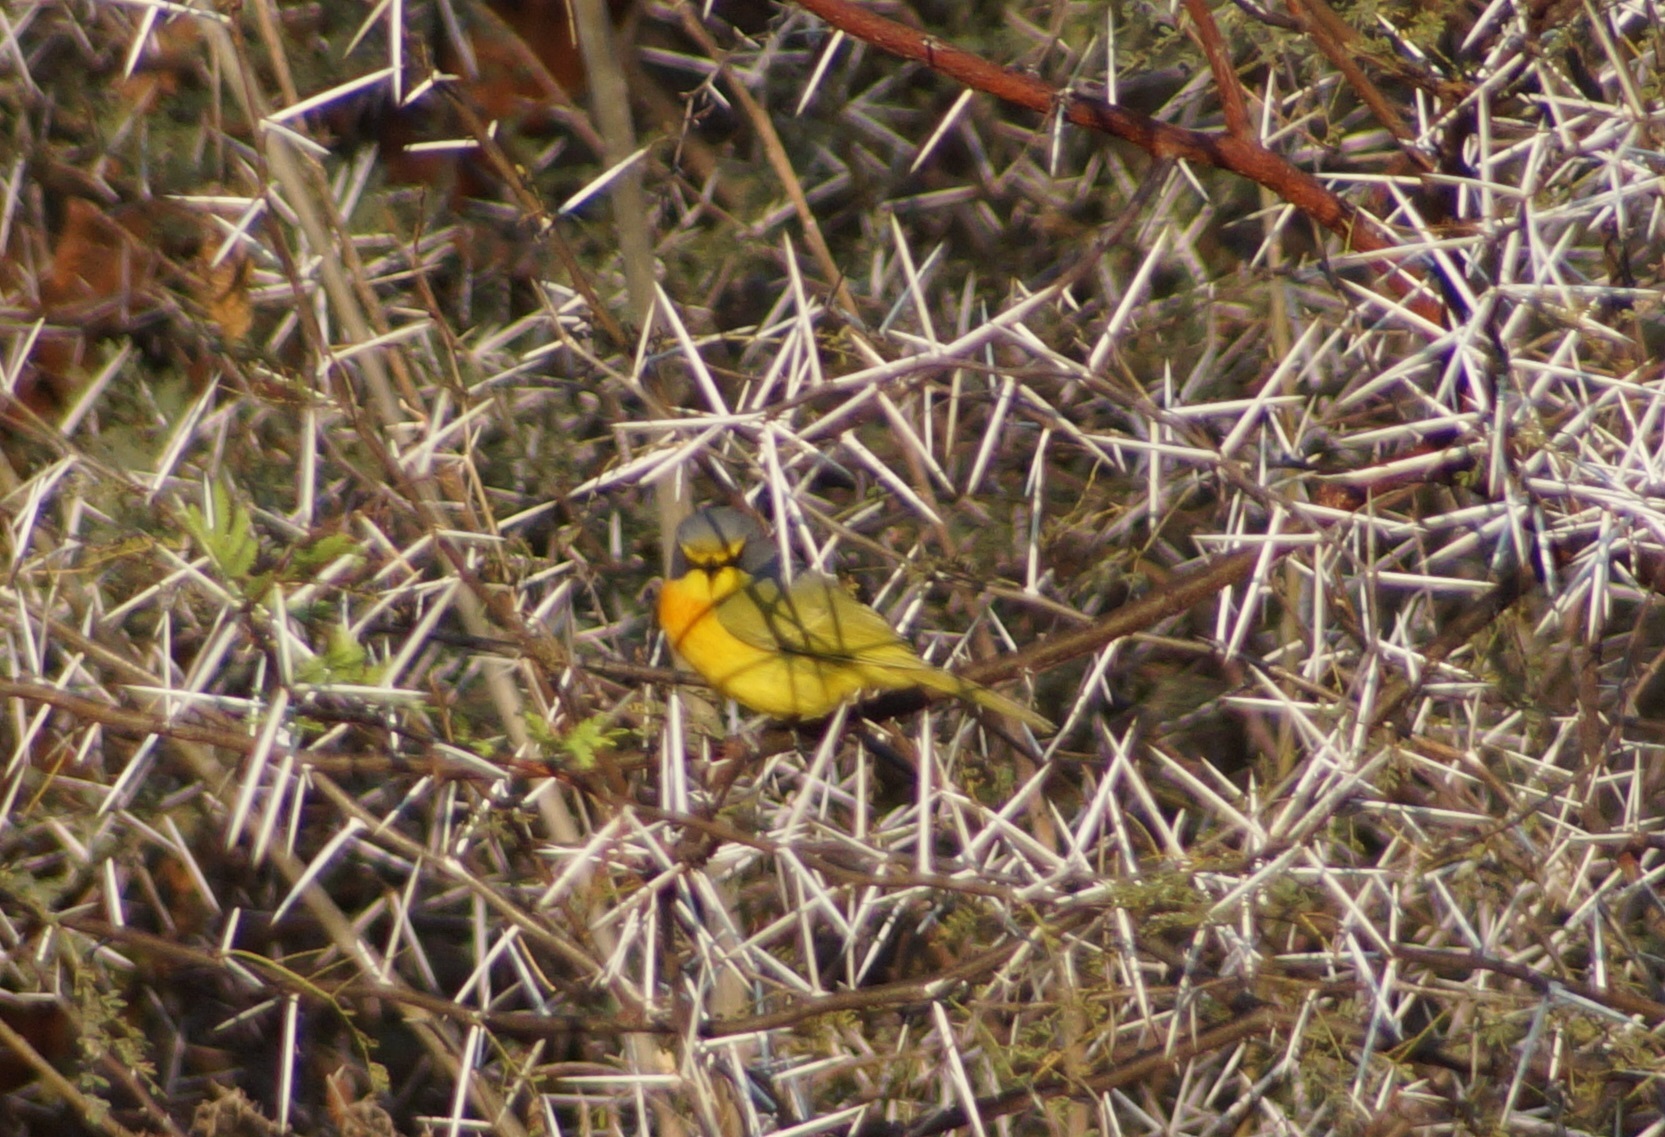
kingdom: Animalia
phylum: Chordata
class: Aves
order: Passeriformes
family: Malaconotidae
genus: Chlorophoneus
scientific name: Chlorophoneus sulfureopectus
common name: Orange-breasted bushshrike
